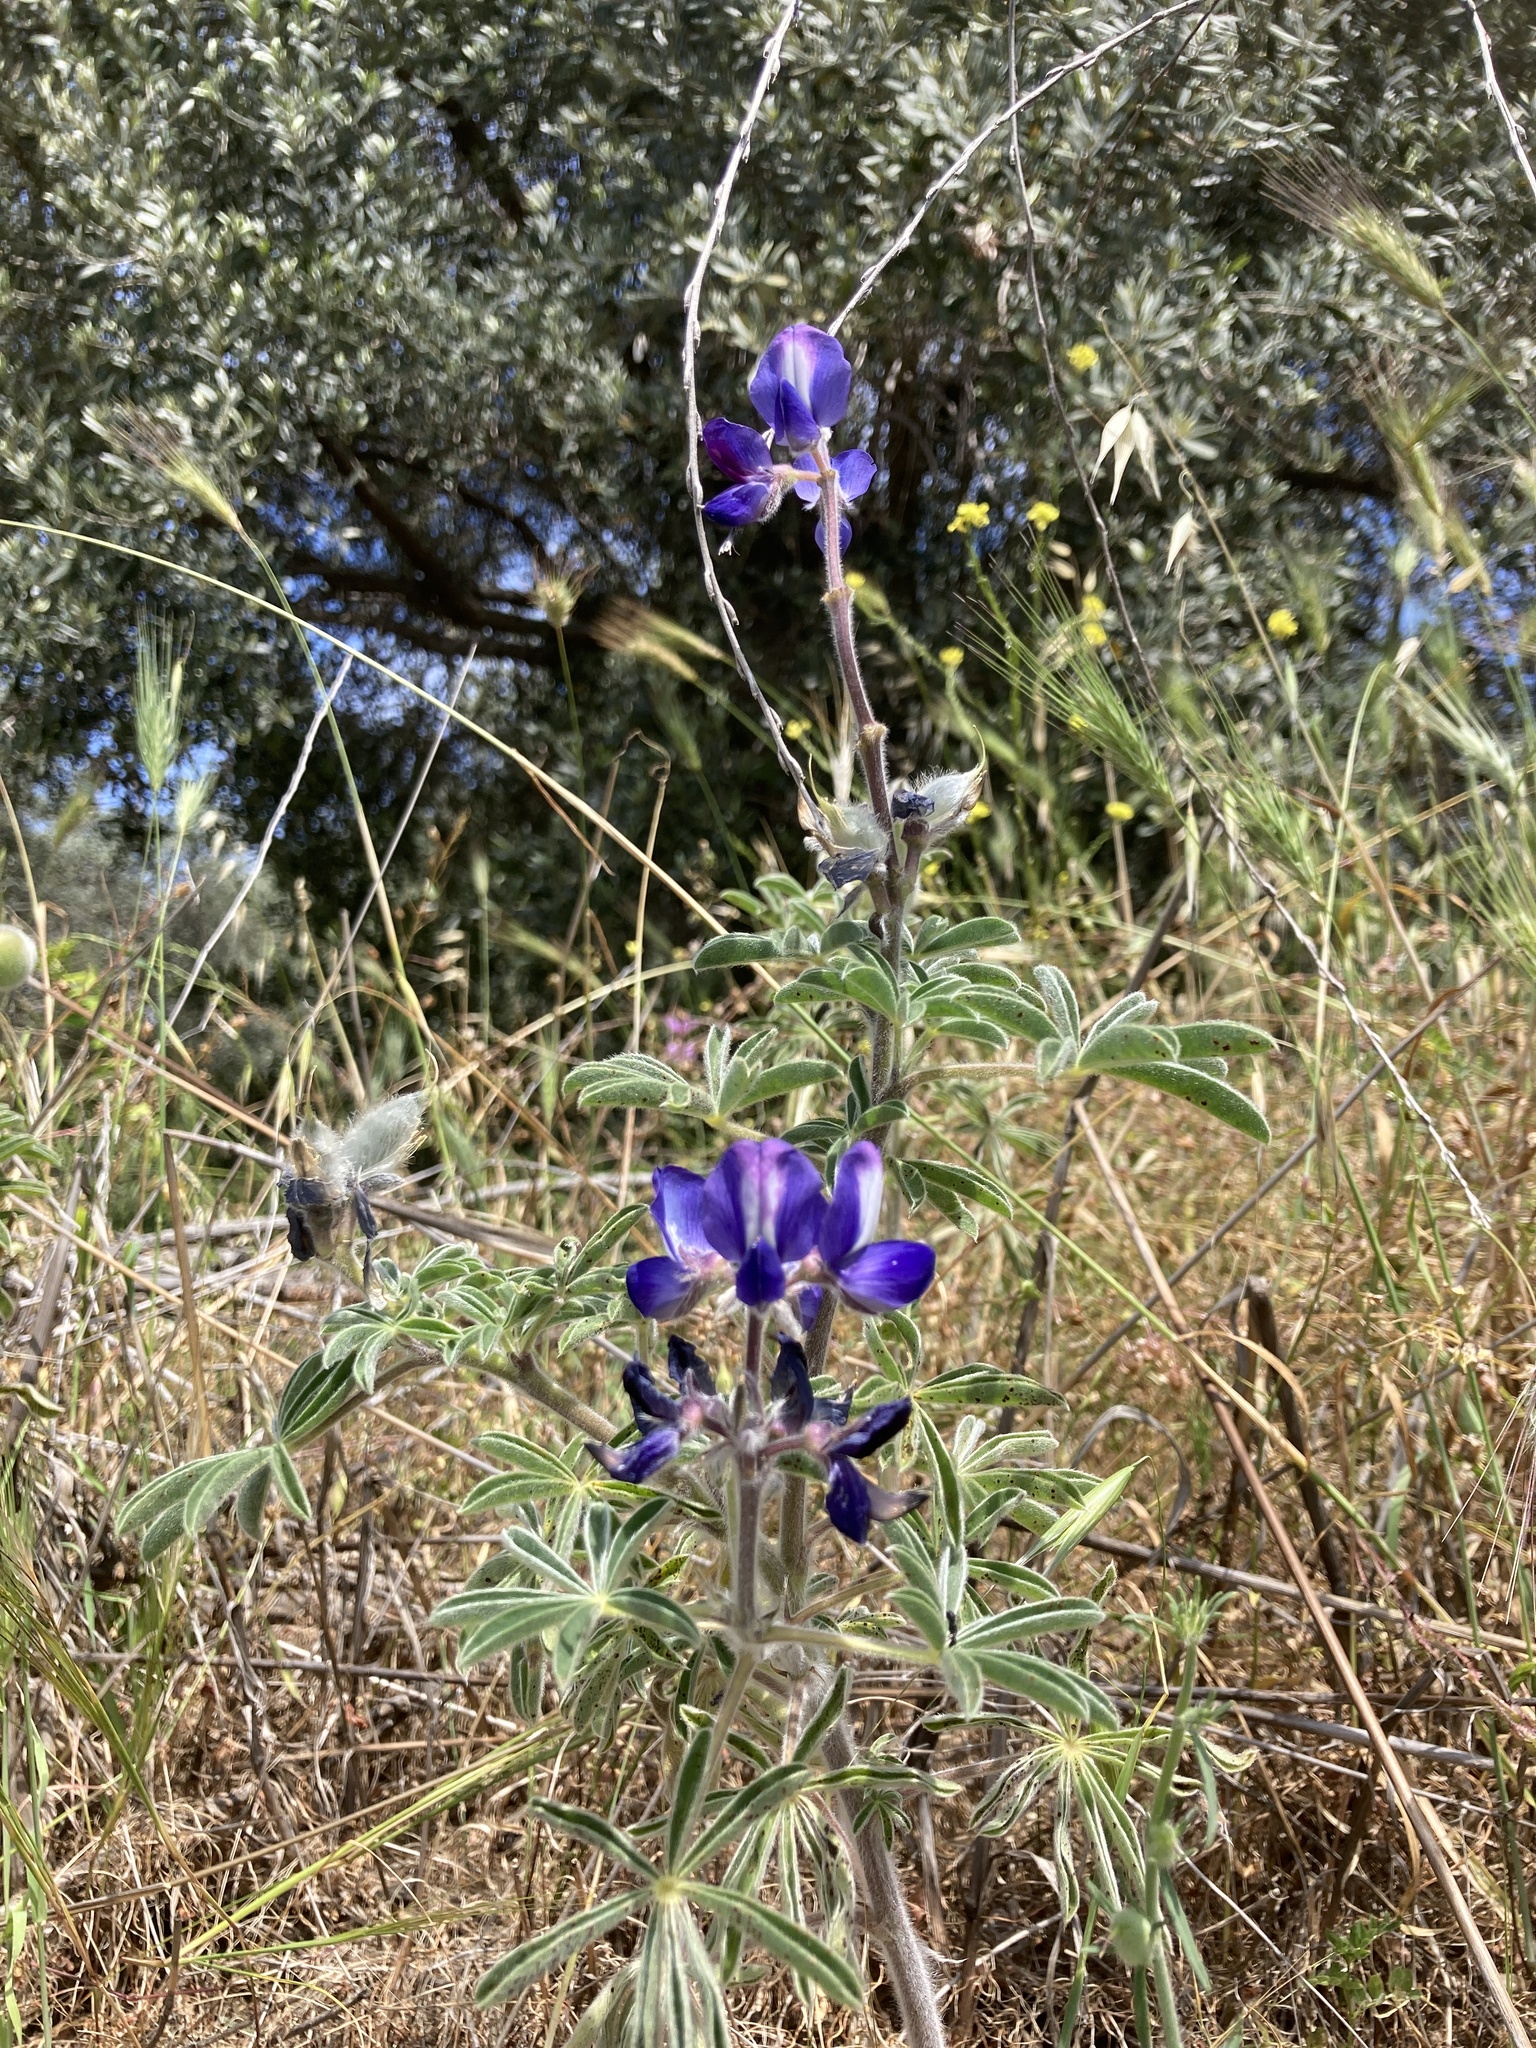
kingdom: Plantae
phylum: Tracheophyta
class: Magnoliopsida
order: Fabales
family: Fabaceae
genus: Lupinus
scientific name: Lupinus pilosus
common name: Blue lupine
